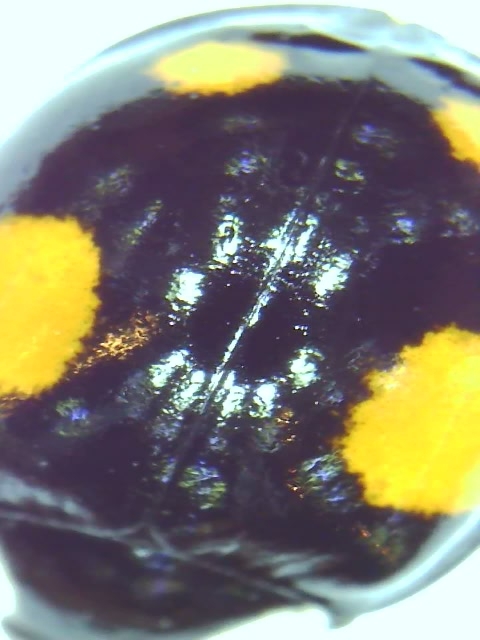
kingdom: Animalia
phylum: Arthropoda
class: Insecta
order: Coleoptera
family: Coccinellidae
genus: Harmonia
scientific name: Harmonia axyridis
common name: Harlequin ladybird
